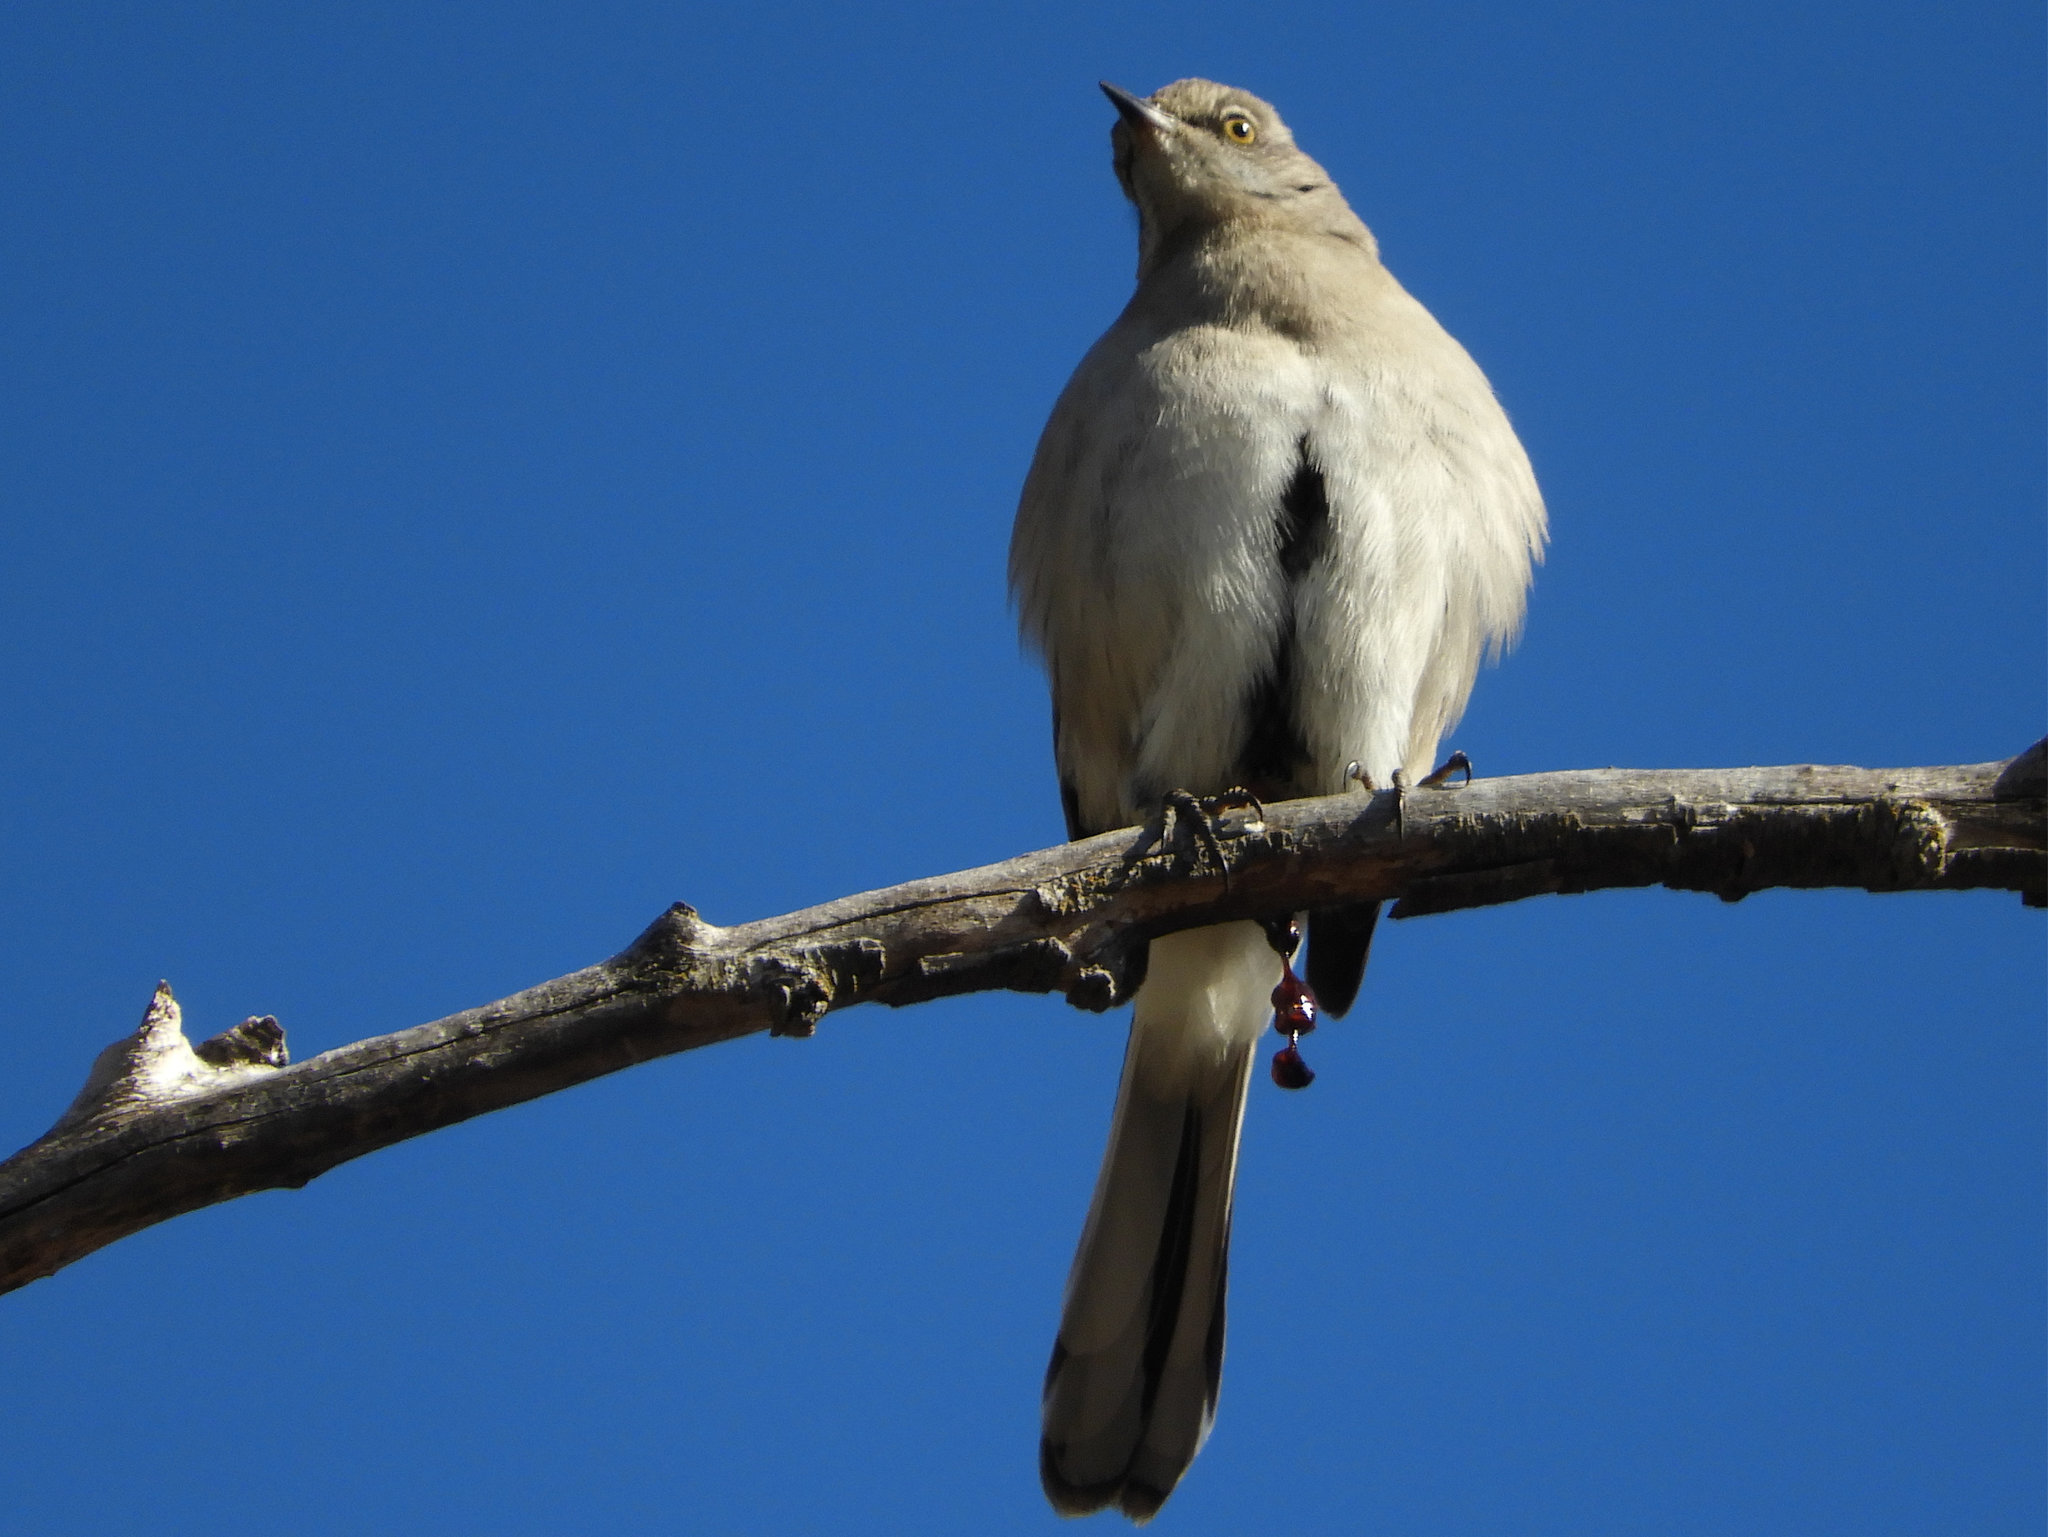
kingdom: Animalia
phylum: Chordata
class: Aves
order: Passeriformes
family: Mimidae
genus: Mimus
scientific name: Mimus polyglottos
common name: Northern mockingbird
